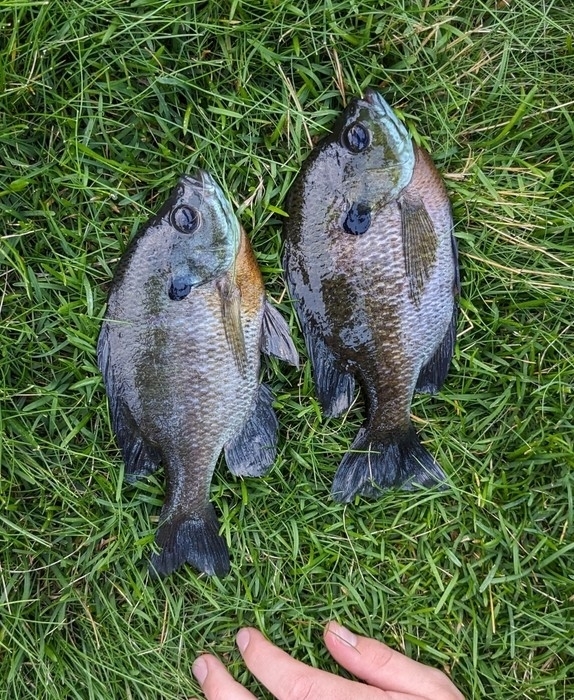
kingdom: Animalia
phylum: Chordata
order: Perciformes
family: Centrarchidae
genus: Lepomis
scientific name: Lepomis macrochirus
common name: Bluegill
